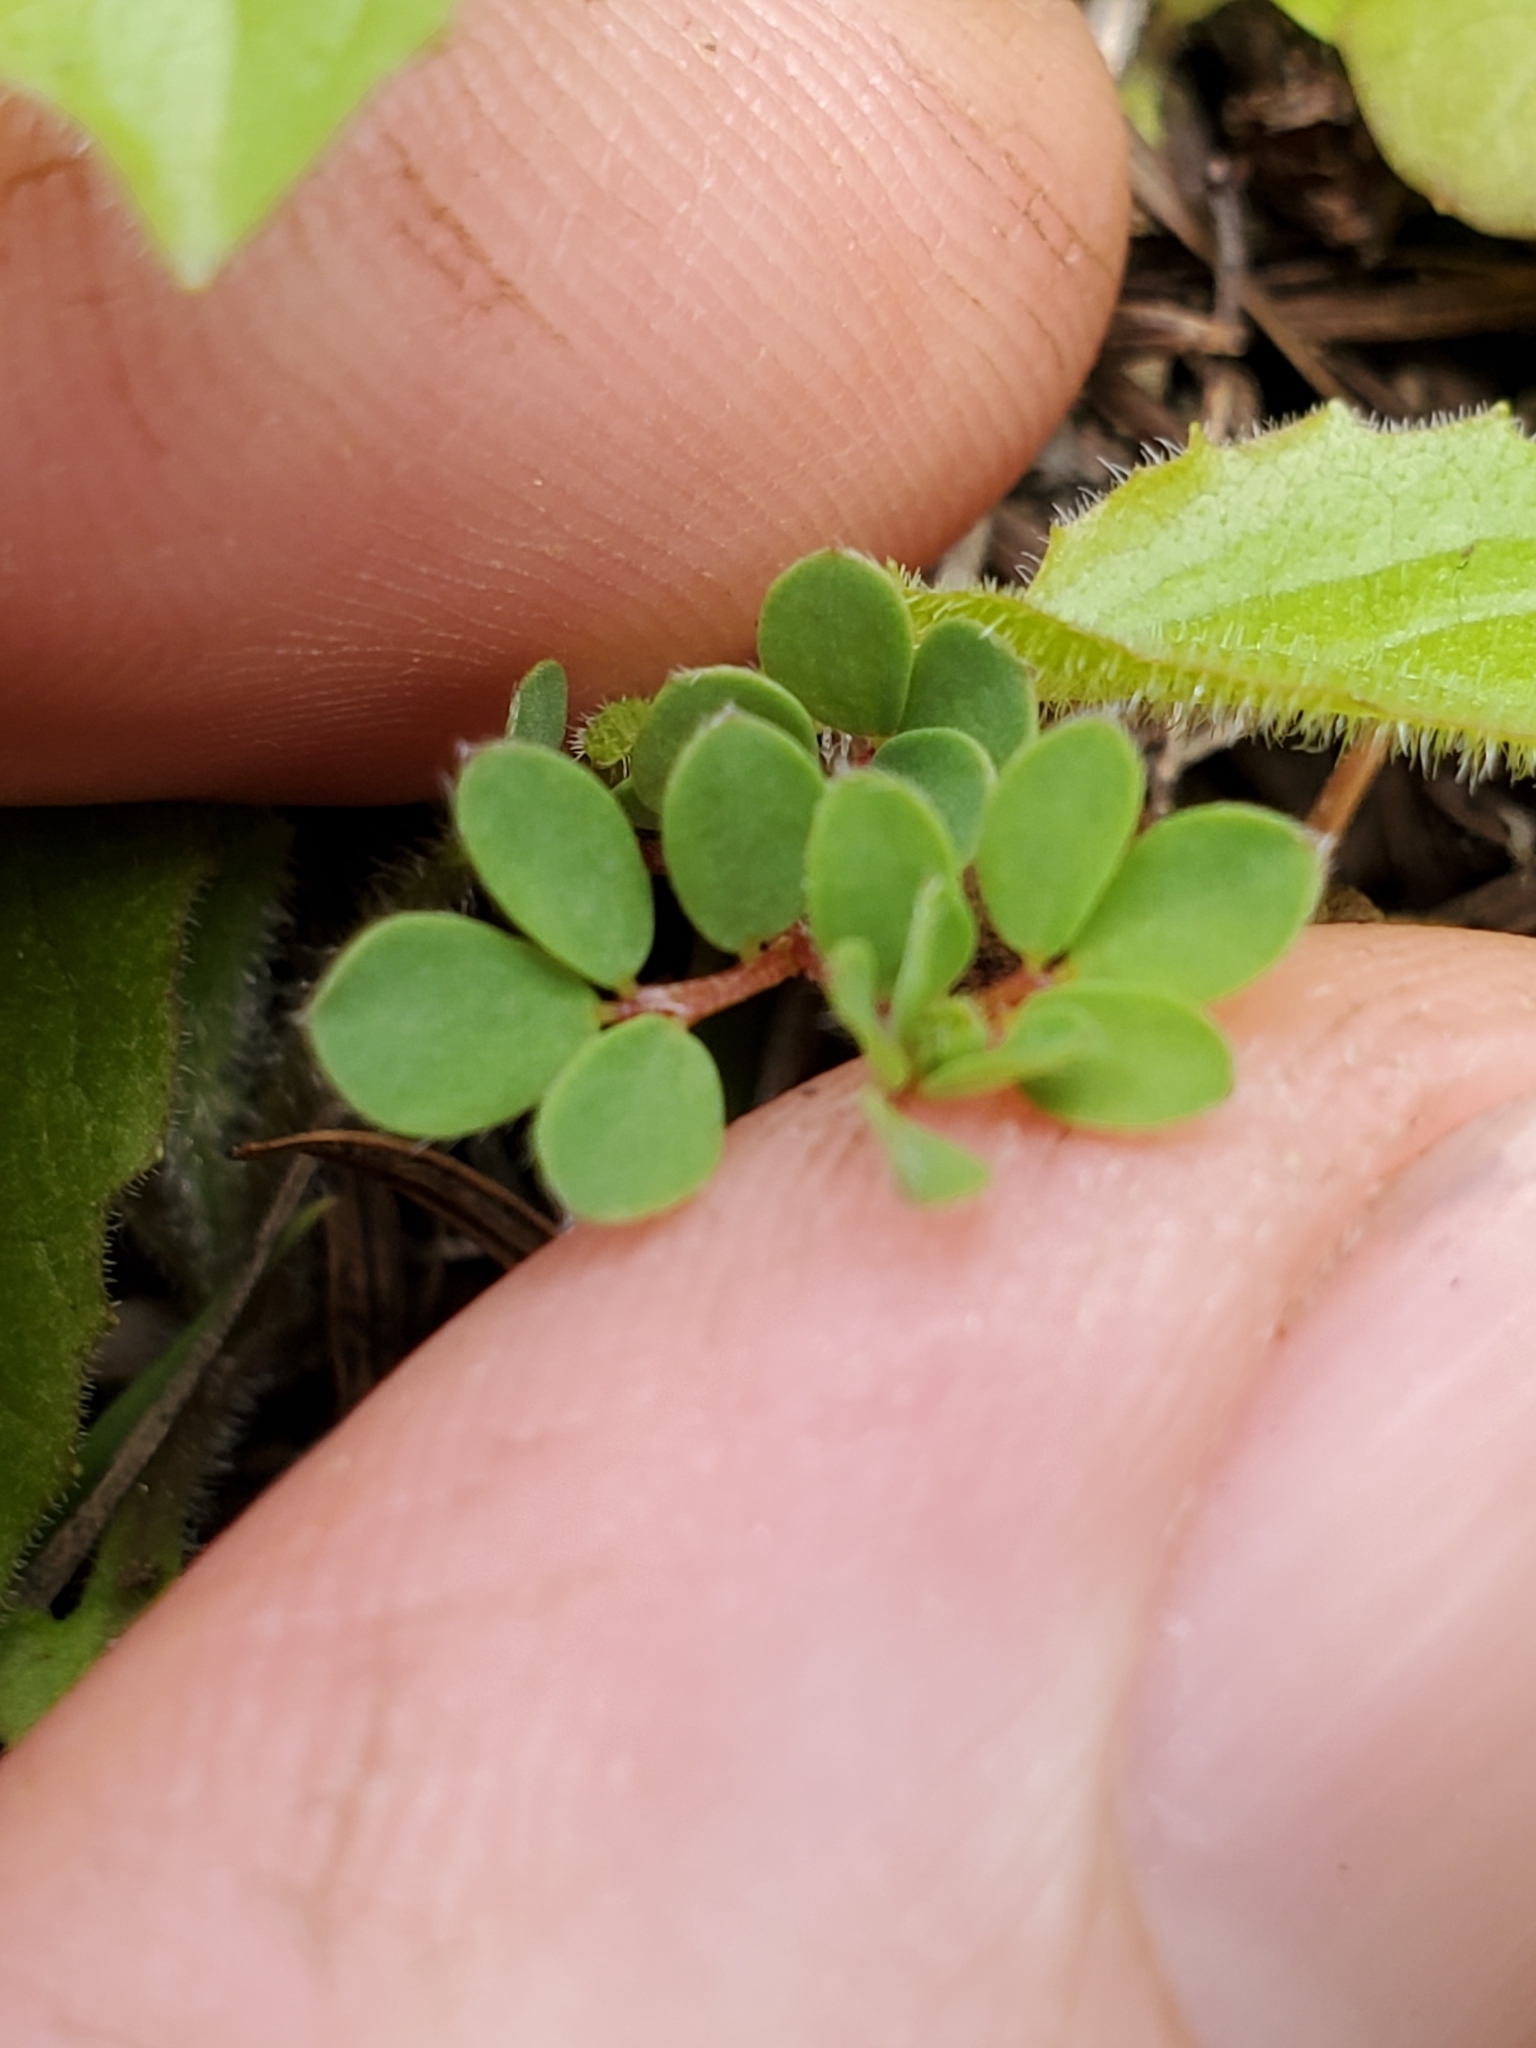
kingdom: Plantae
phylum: Tracheophyta
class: Magnoliopsida
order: Fabales
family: Fabaceae
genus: Acmispon
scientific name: Acmispon parviflorus
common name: Desert deer-vetch
